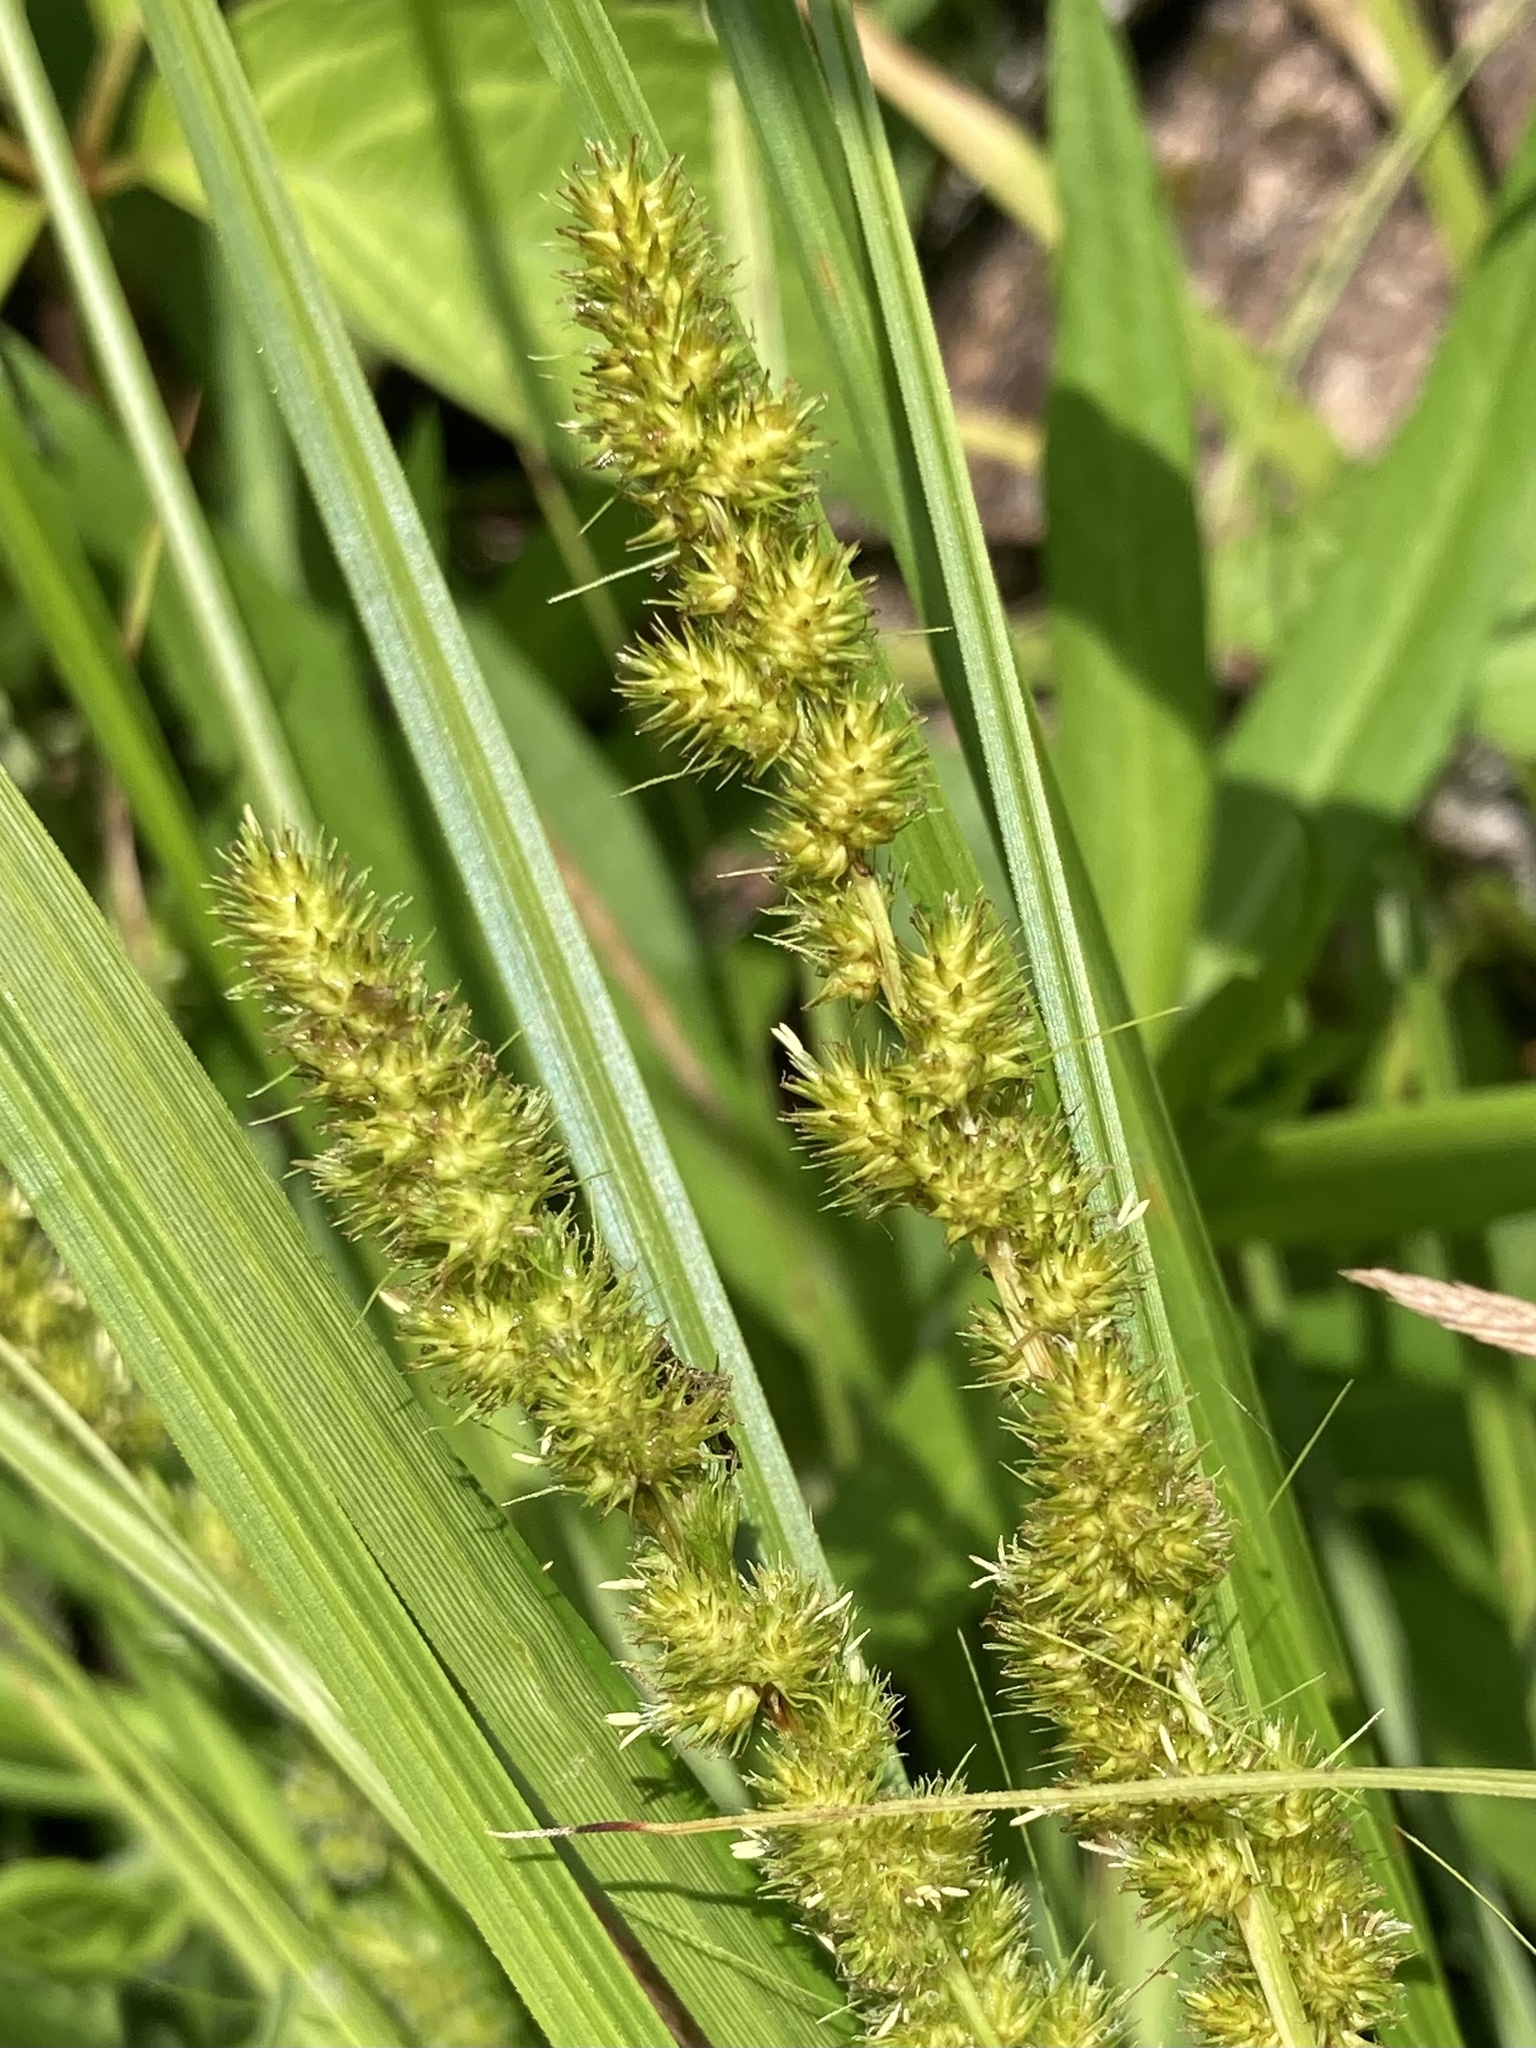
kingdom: Plantae
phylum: Tracheophyta
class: Liliopsida
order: Poales
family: Cyperaceae
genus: Carex
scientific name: Carex vulpinoidea
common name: American fox-sedge
